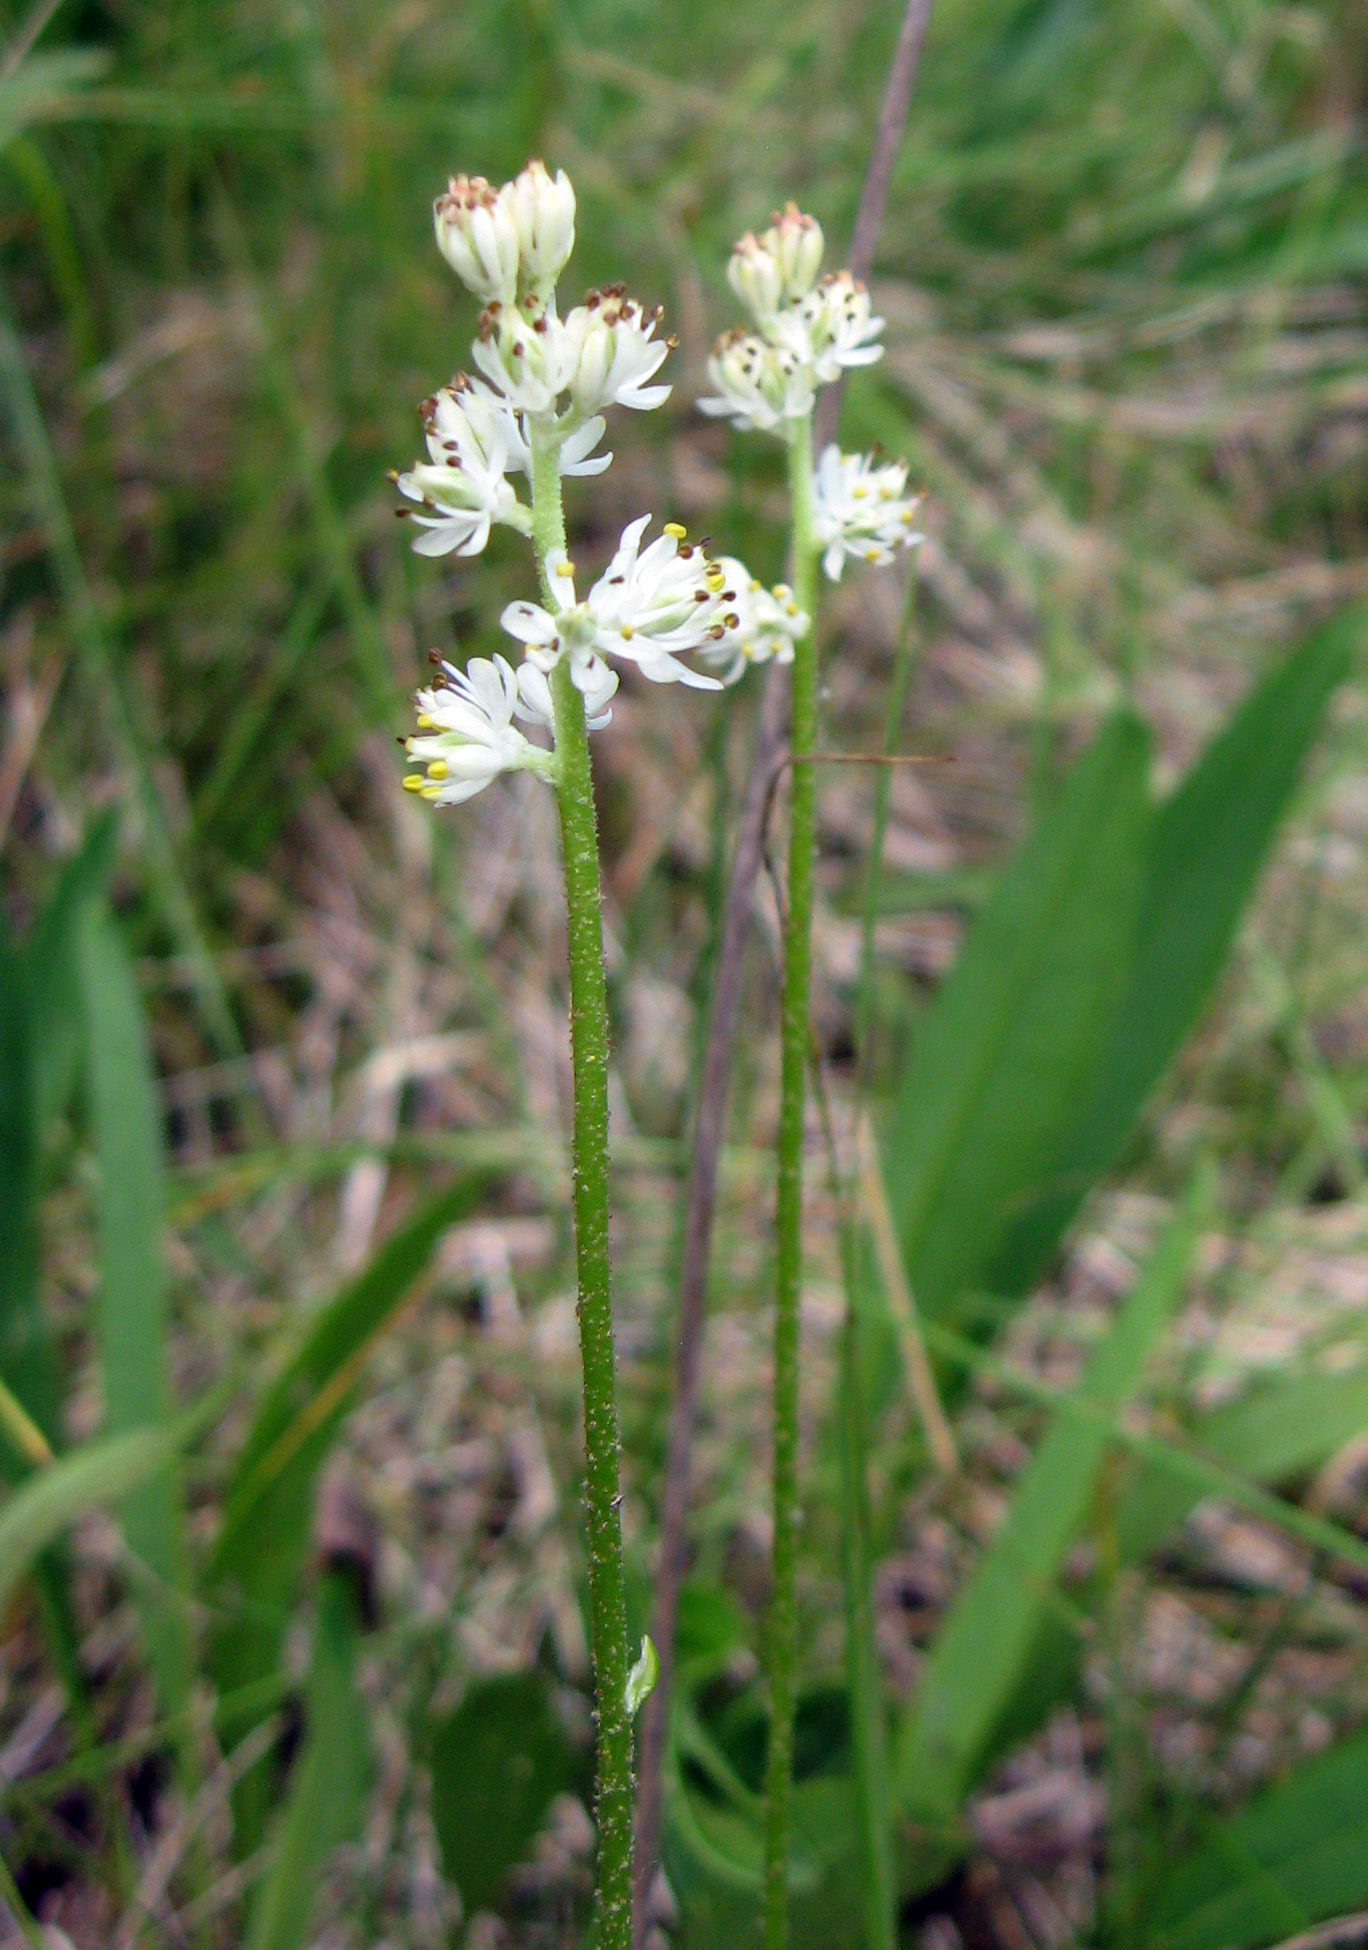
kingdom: Plantae
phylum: Tracheophyta
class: Liliopsida
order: Alismatales
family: Tofieldiaceae
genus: Triantha
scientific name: Triantha glutinosa
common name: Glutinous tofieldia
